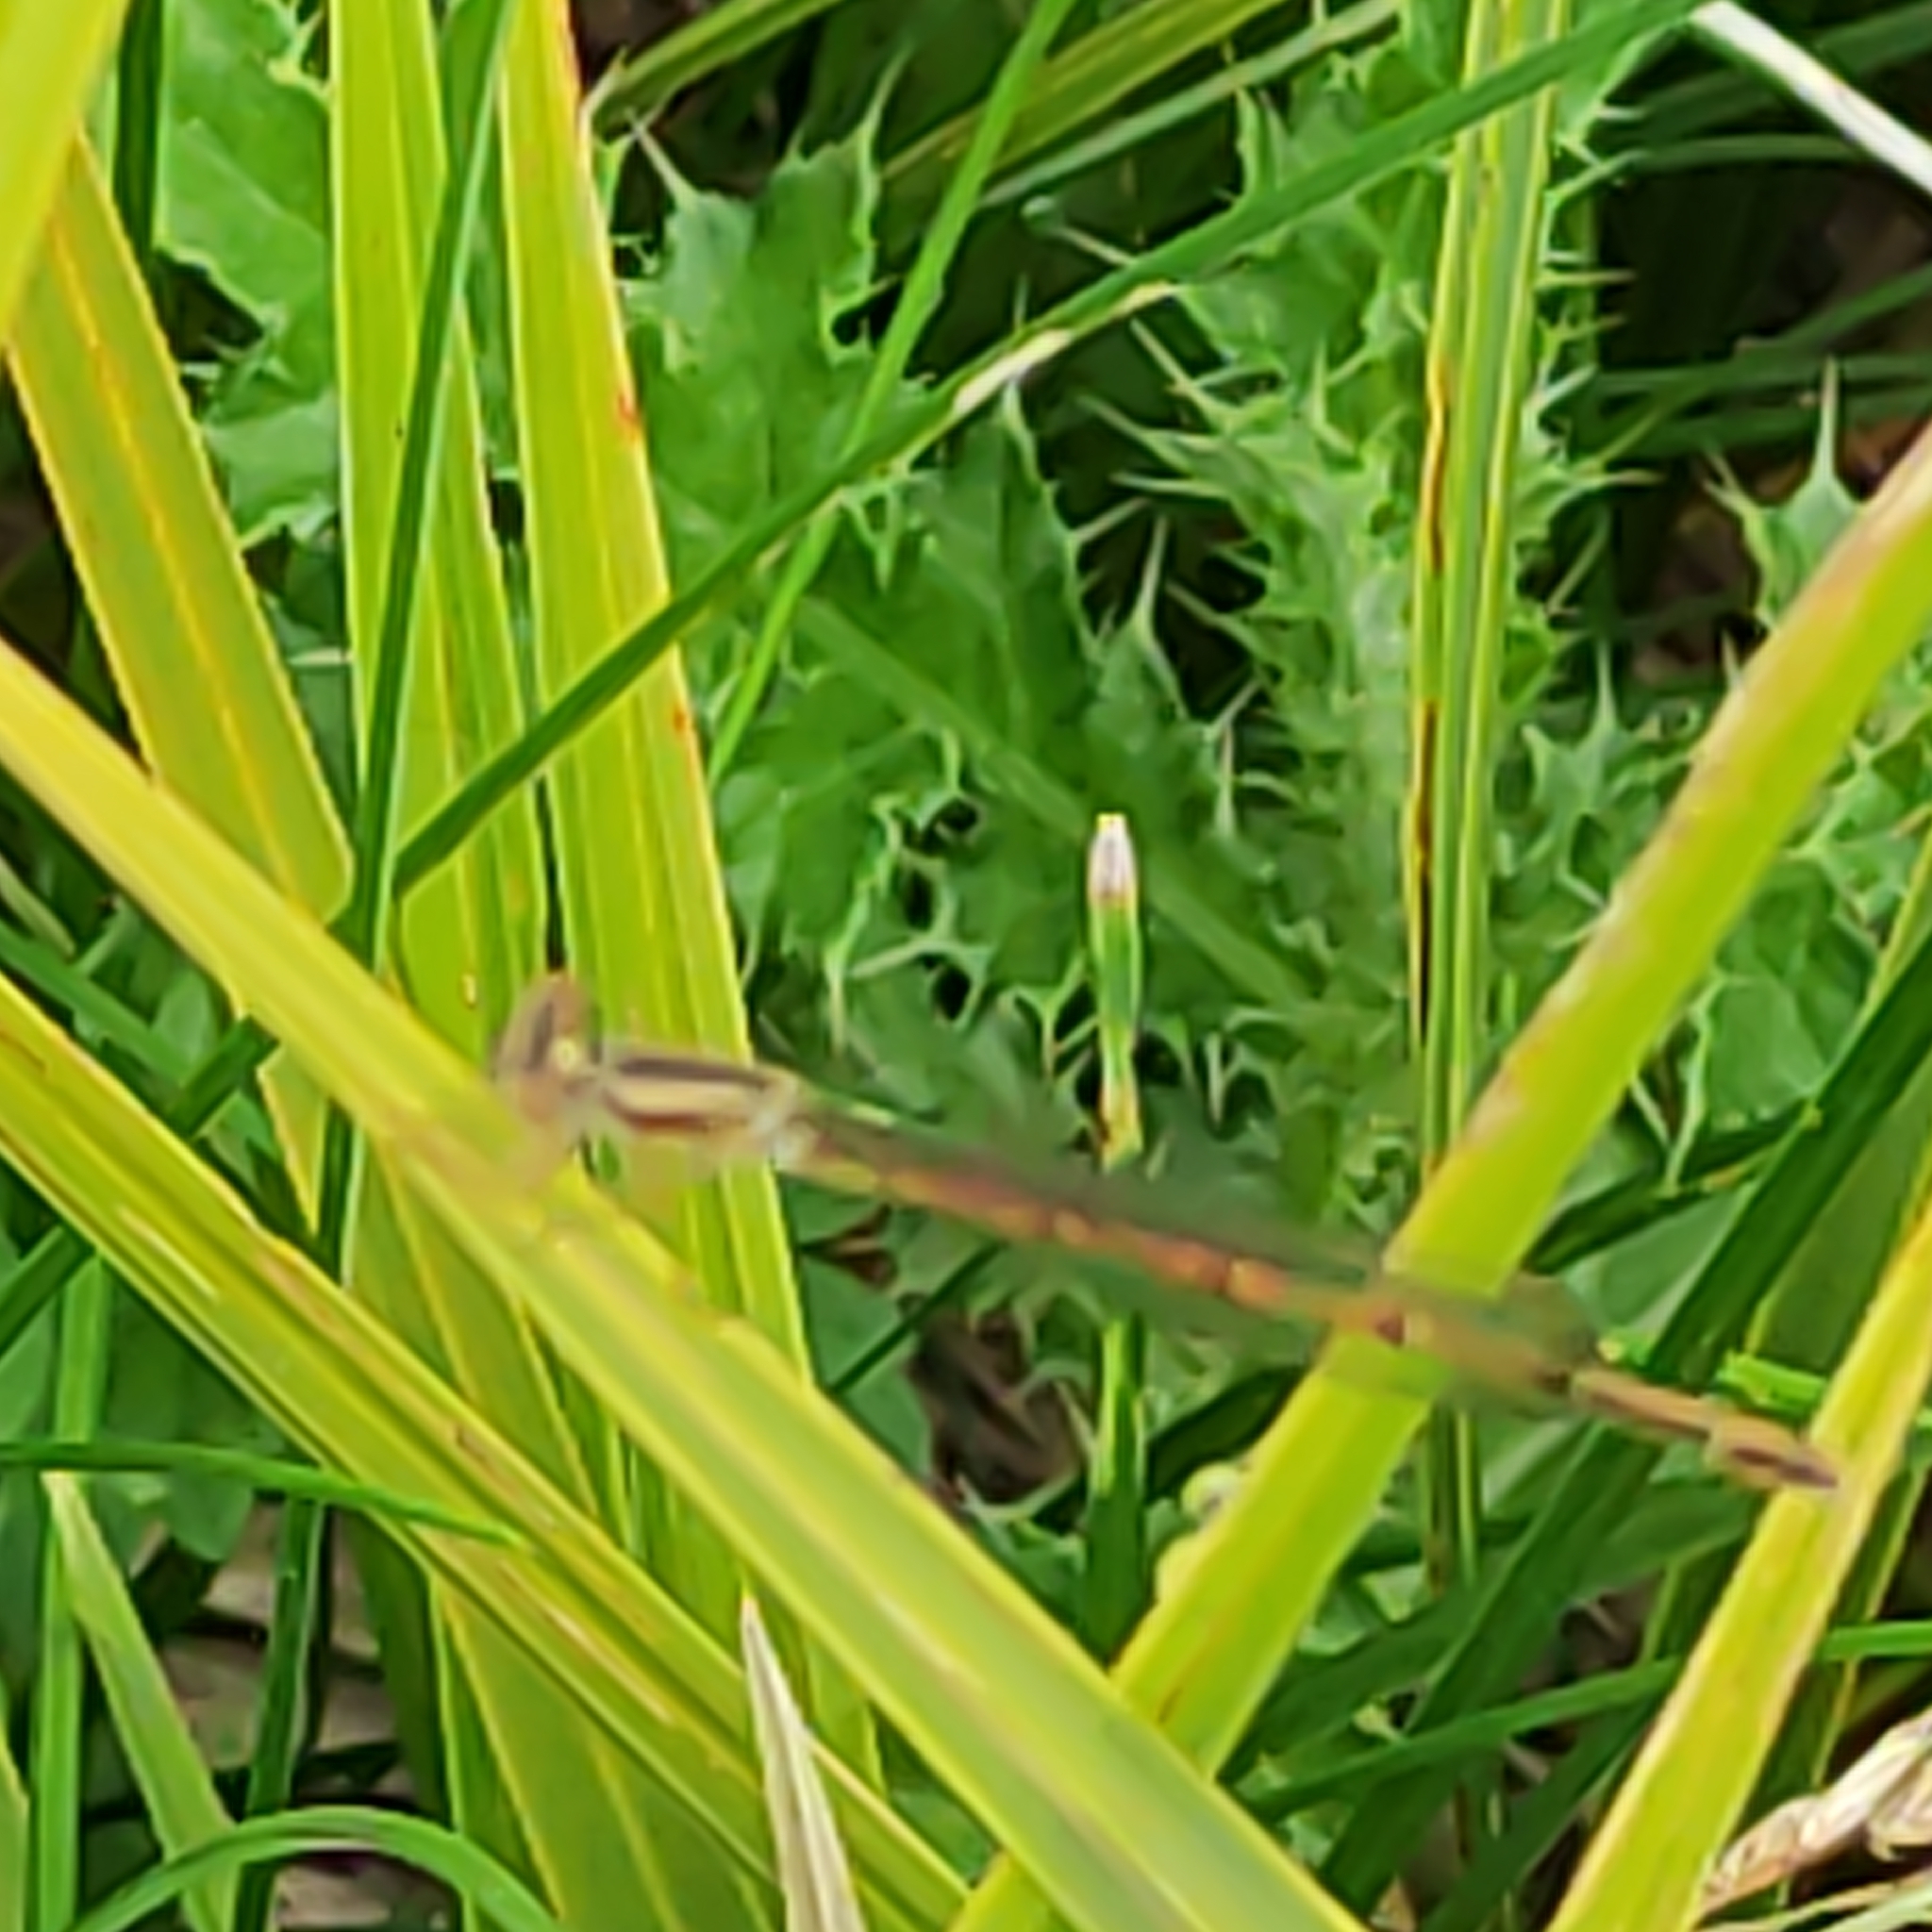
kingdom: Animalia
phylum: Arthropoda
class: Insecta
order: Odonata
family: Coenagrionidae
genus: Xanthocnemis
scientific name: Xanthocnemis zealandica
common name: Common redcoat damselfly
